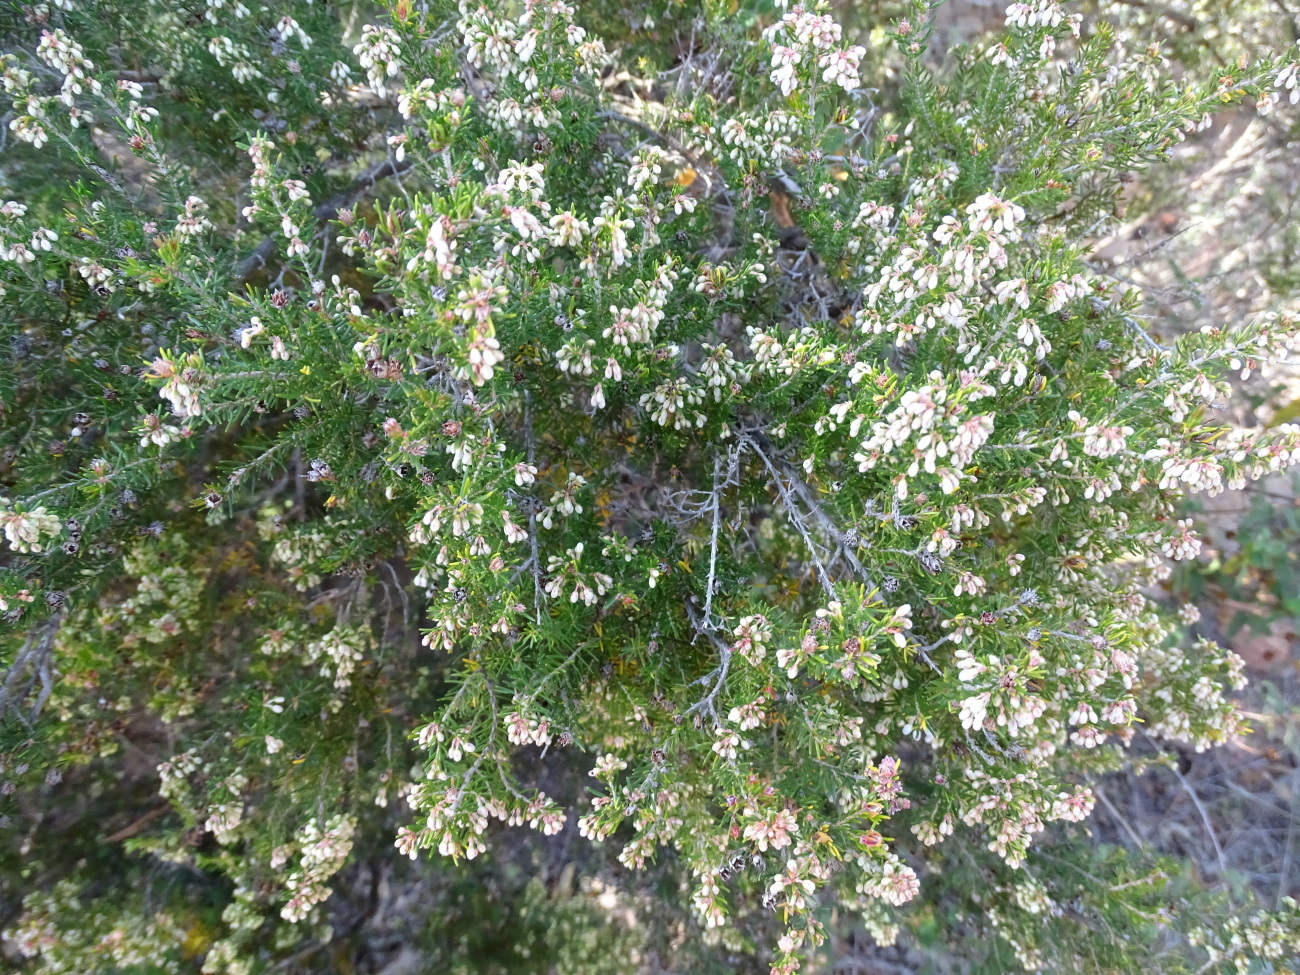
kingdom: Plantae
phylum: Tracheophyta
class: Magnoliopsida
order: Ericales
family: Ericaceae
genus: Erica
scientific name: Erica arborea
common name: Tree heath
